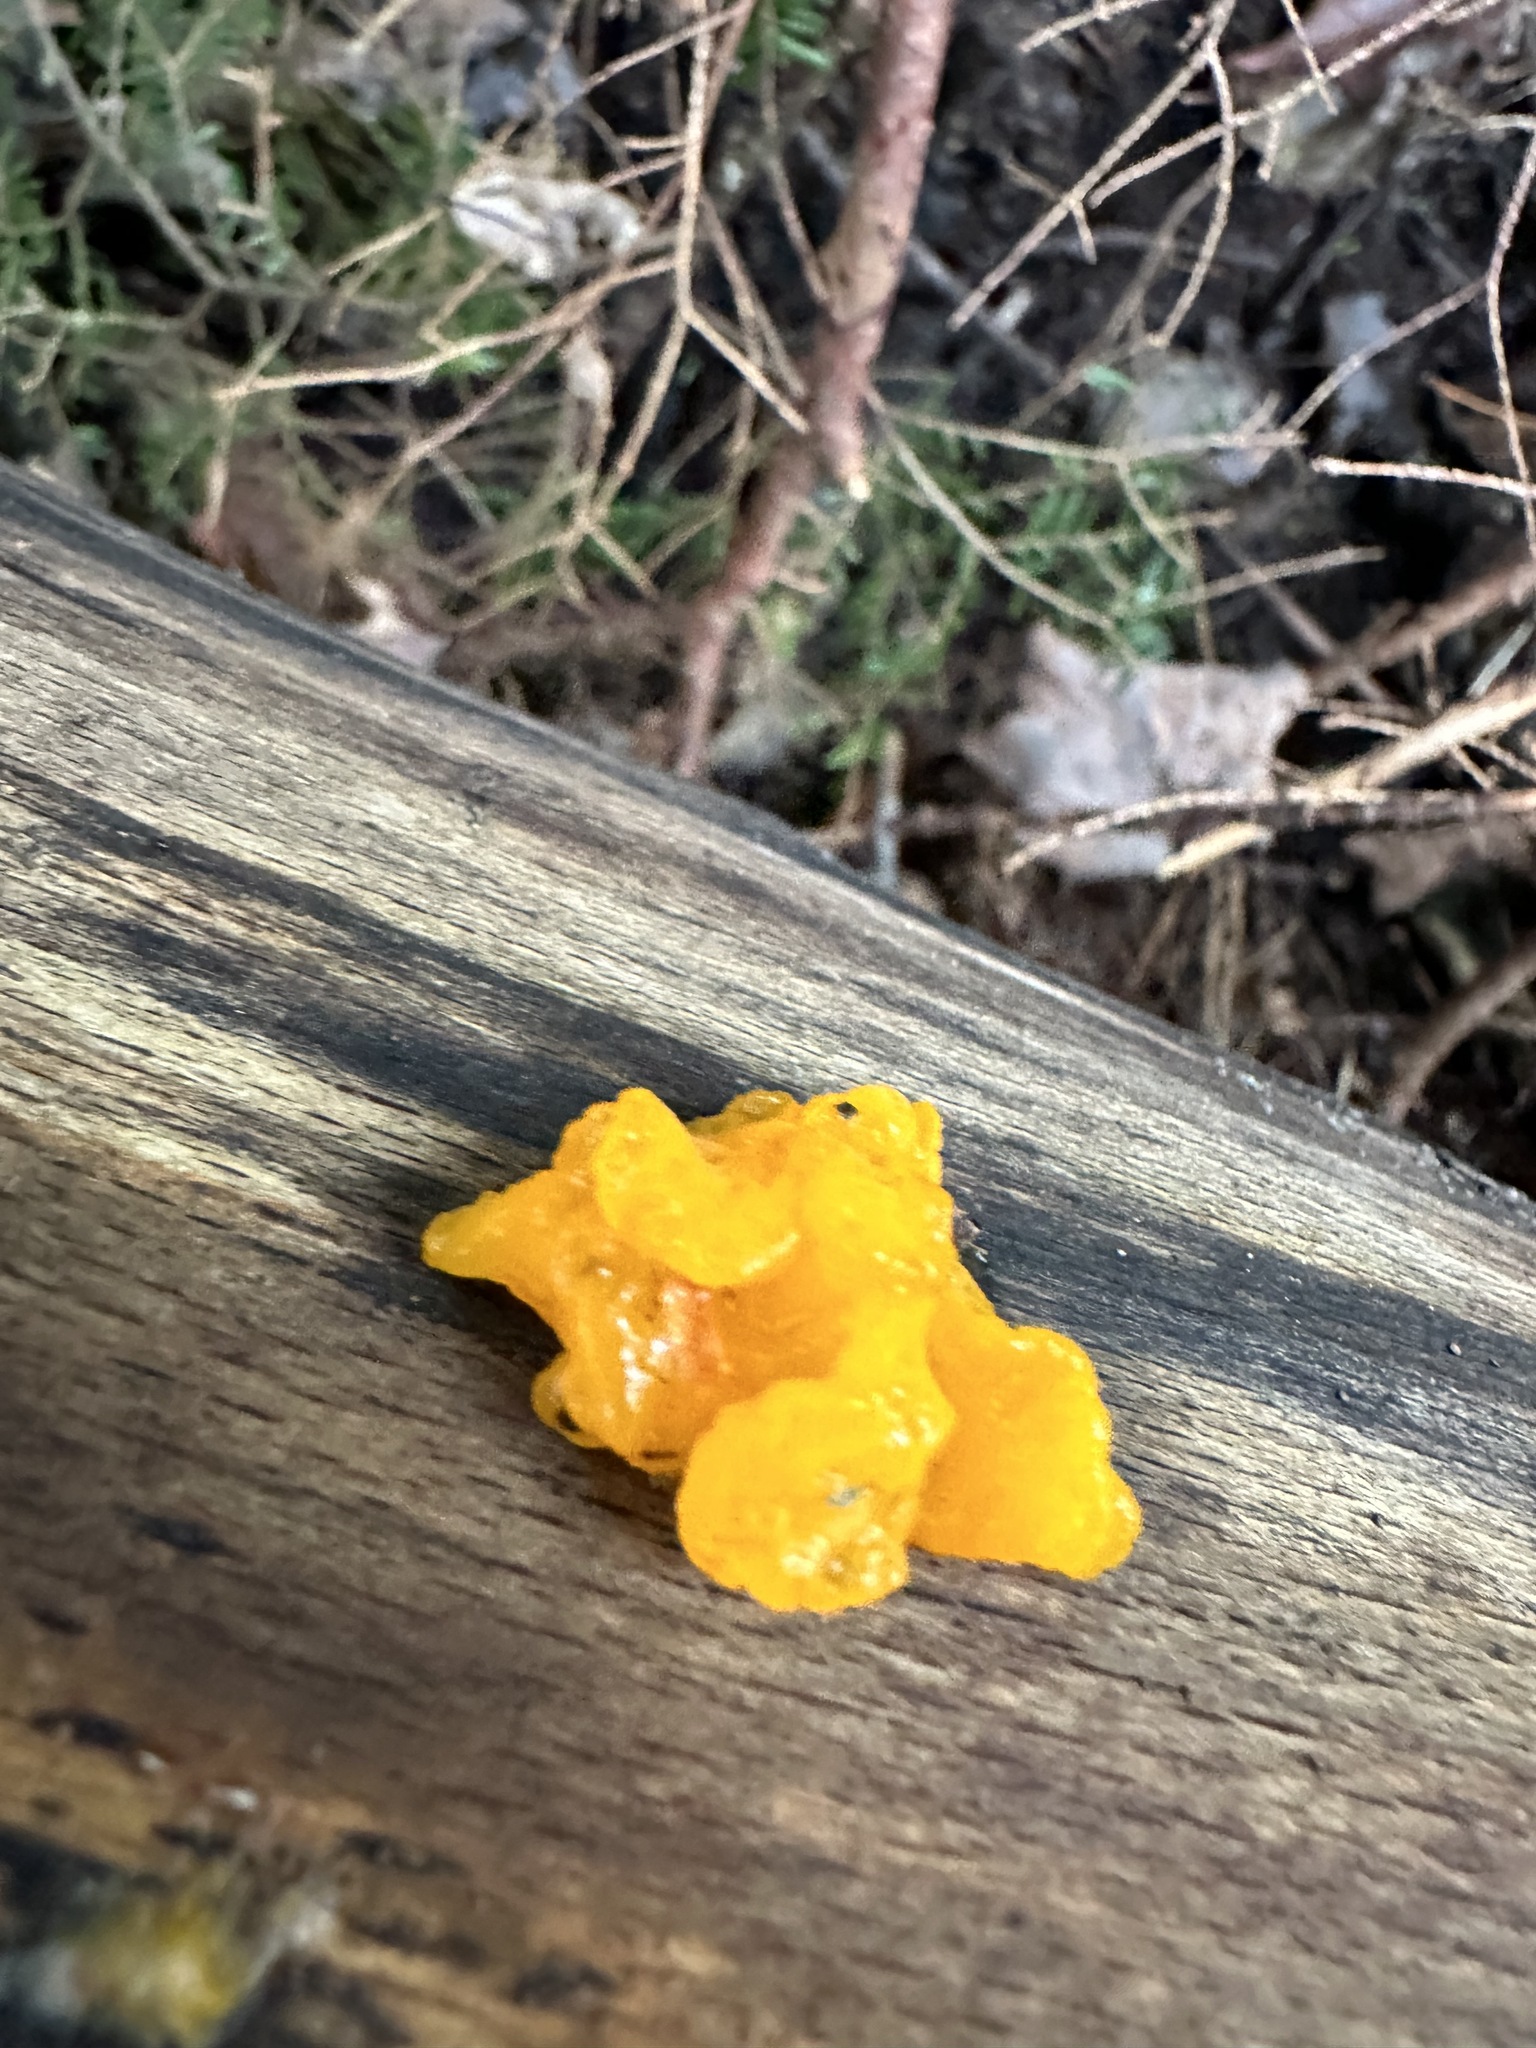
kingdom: Fungi
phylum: Basidiomycota
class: Dacrymycetes
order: Dacrymycetales
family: Dacrymycetaceae
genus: Dacrymyces
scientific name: Dacrymyces chrysospermus
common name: Orange jelly spot
